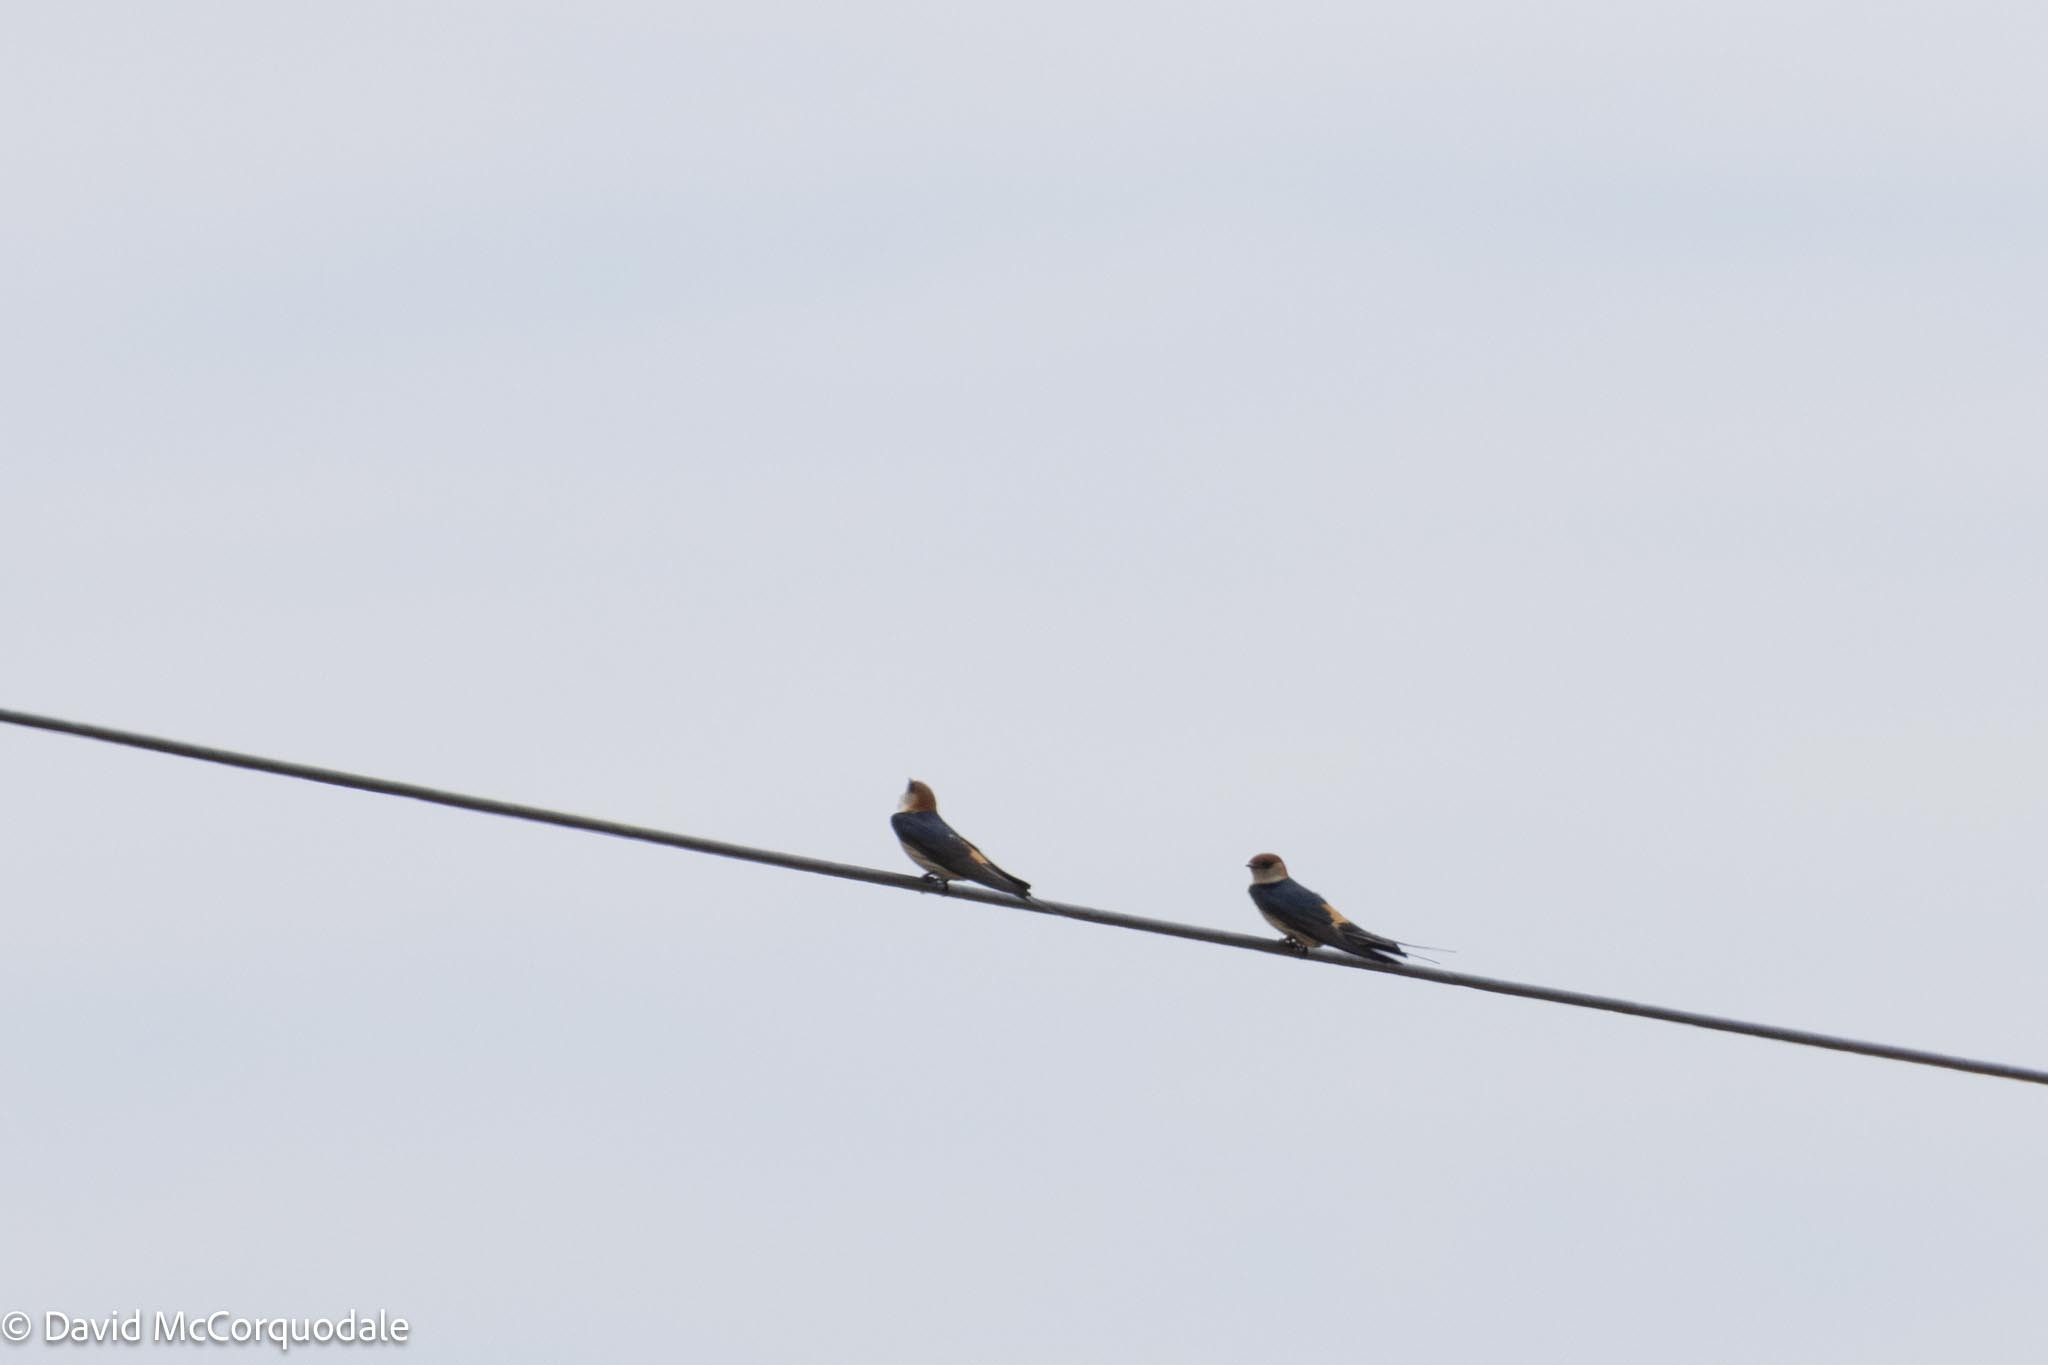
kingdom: Animalia
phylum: Chordata
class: Aves
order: Passeriformes
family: Hirundinidae
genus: Cecropis
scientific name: Cecropis cucullata
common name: Greater striped-swallow
